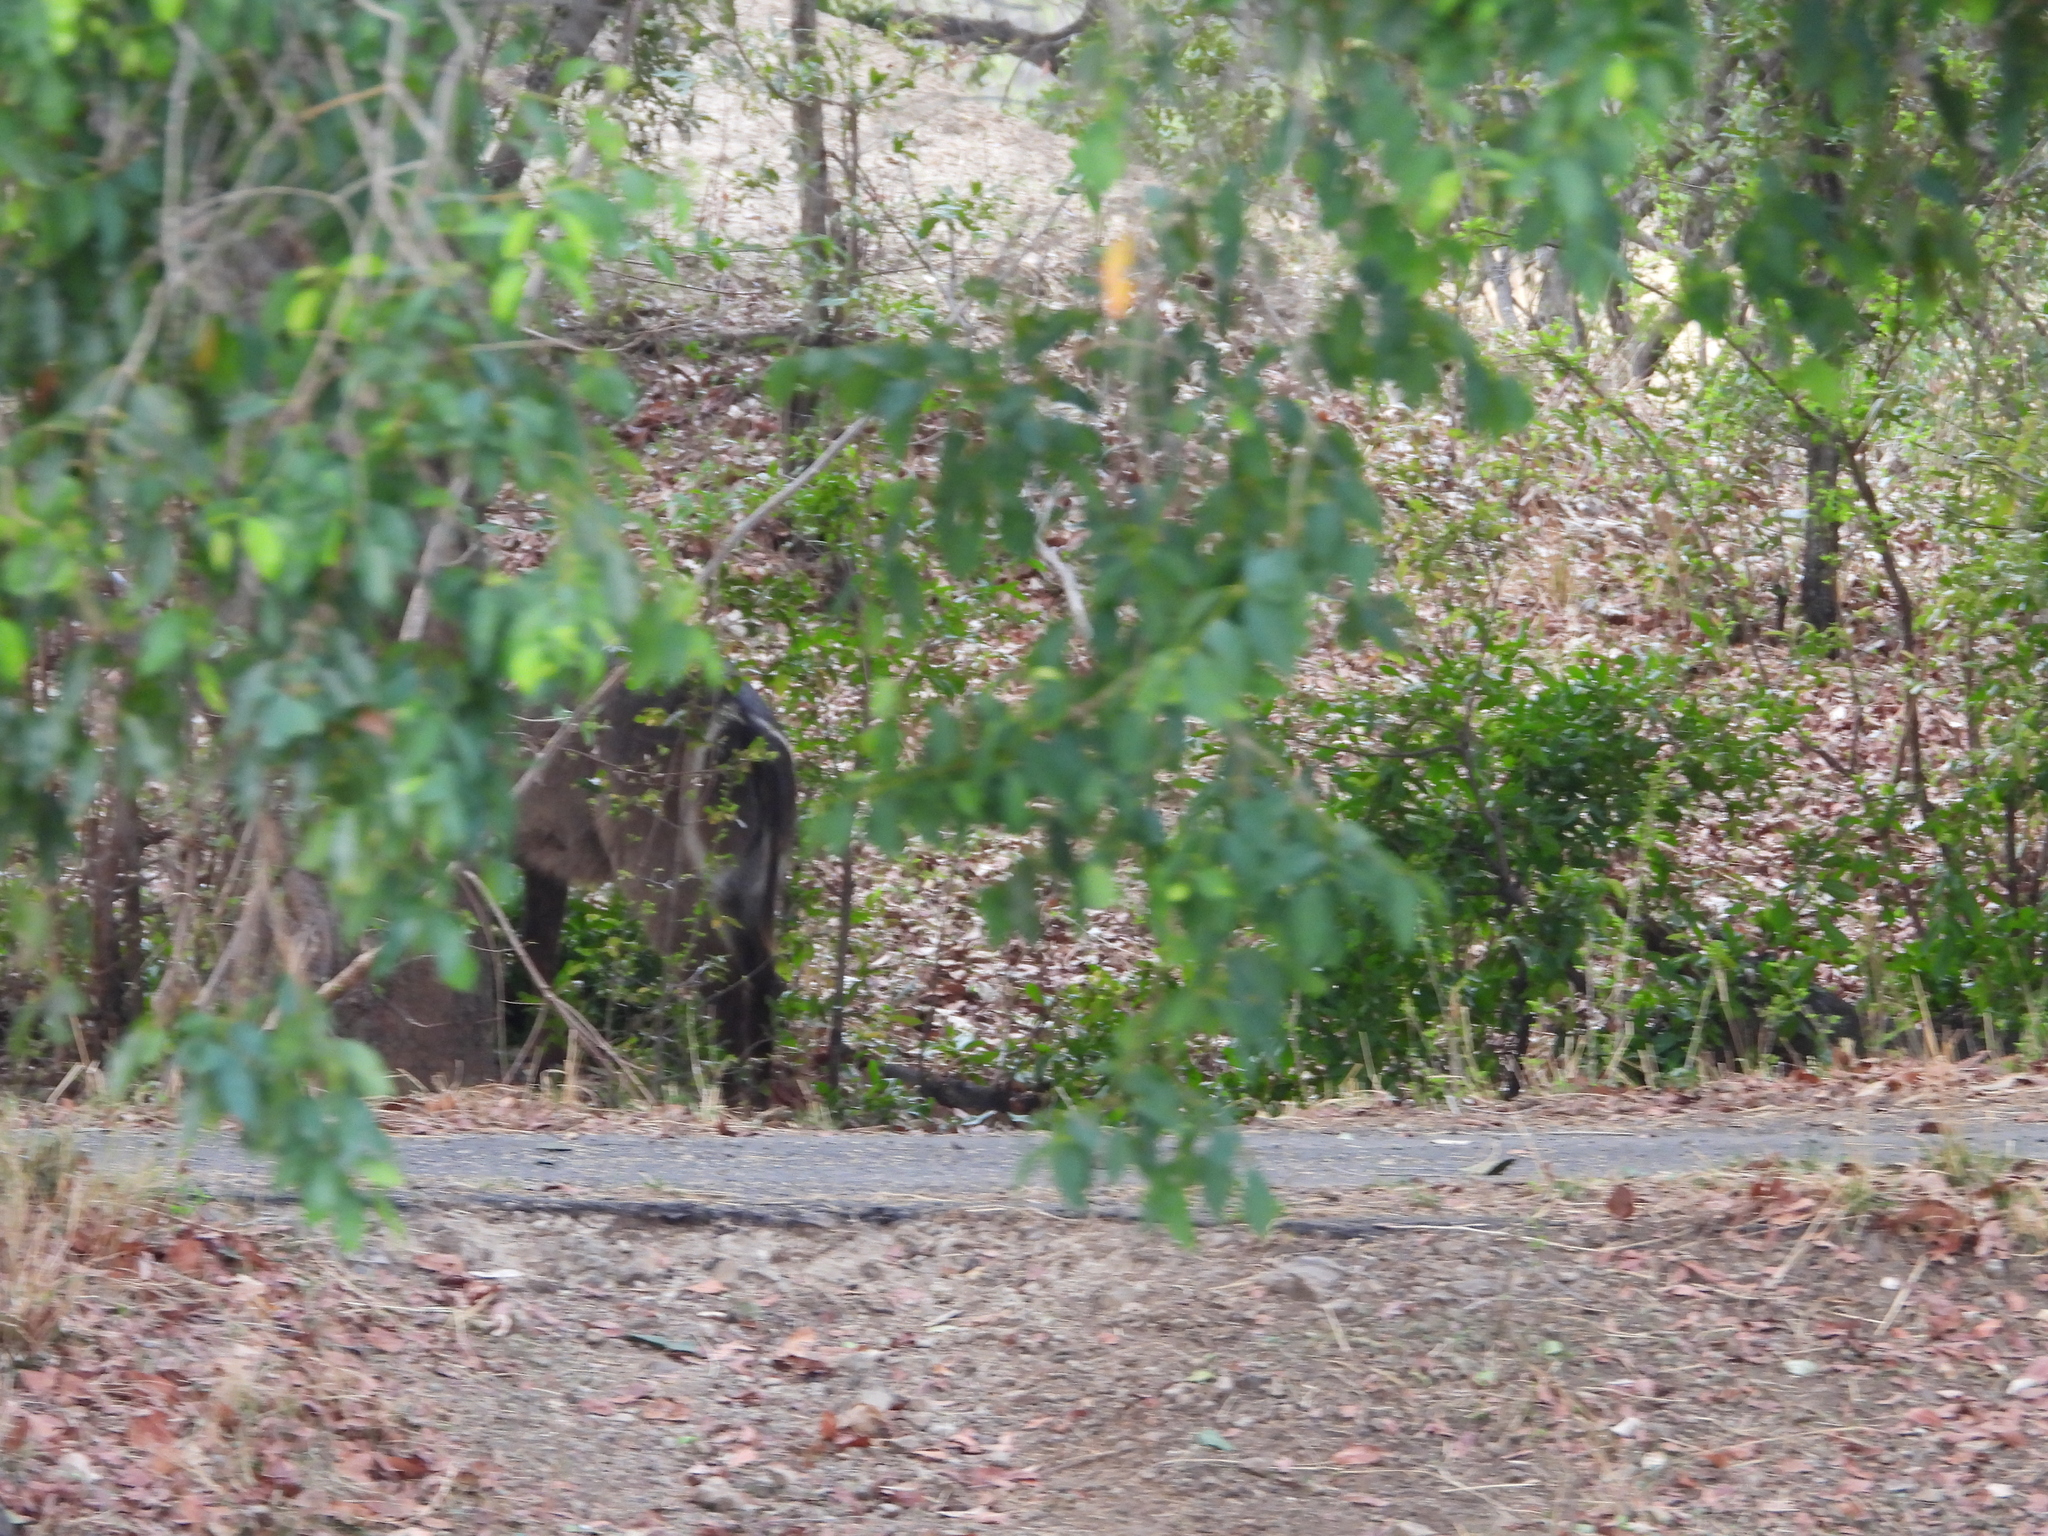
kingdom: Animalia
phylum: Chordata
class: Mammalia
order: Artiodactyla
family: Bovidae
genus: Kobus
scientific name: Kobus ellipsiprymnus
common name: Waterbuck
